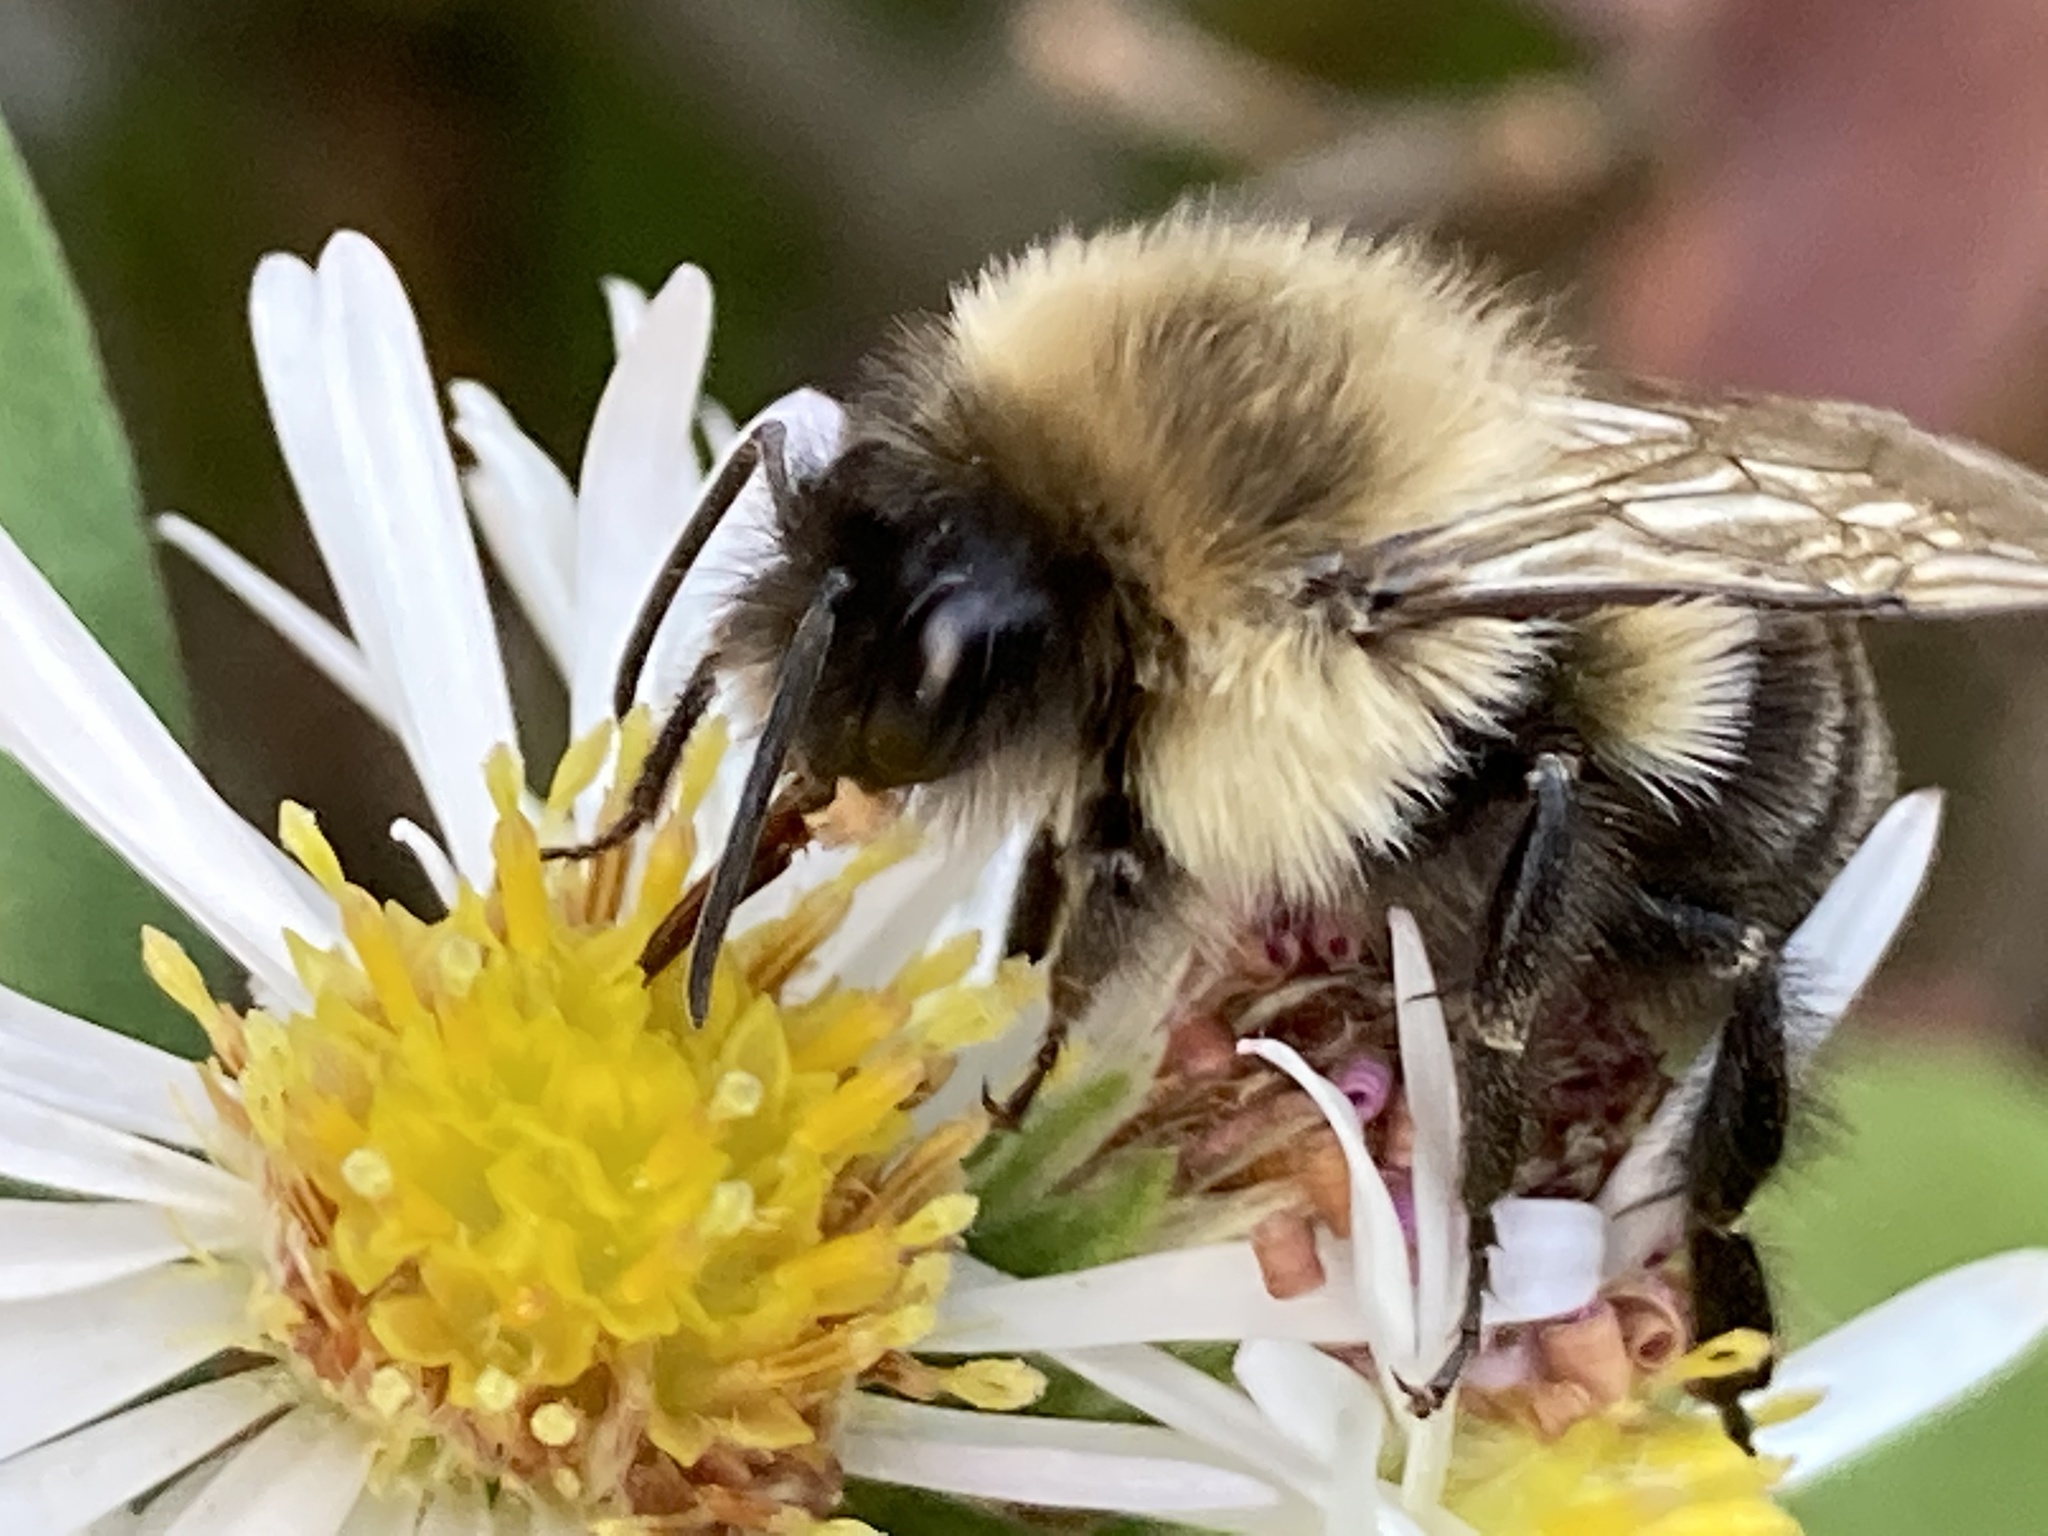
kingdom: Animalia
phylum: Arthropoda
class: Insecta
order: Hymenoptera
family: Apidae
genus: Bombus
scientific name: Bombus impatiens
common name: Common eastern bumble bee
